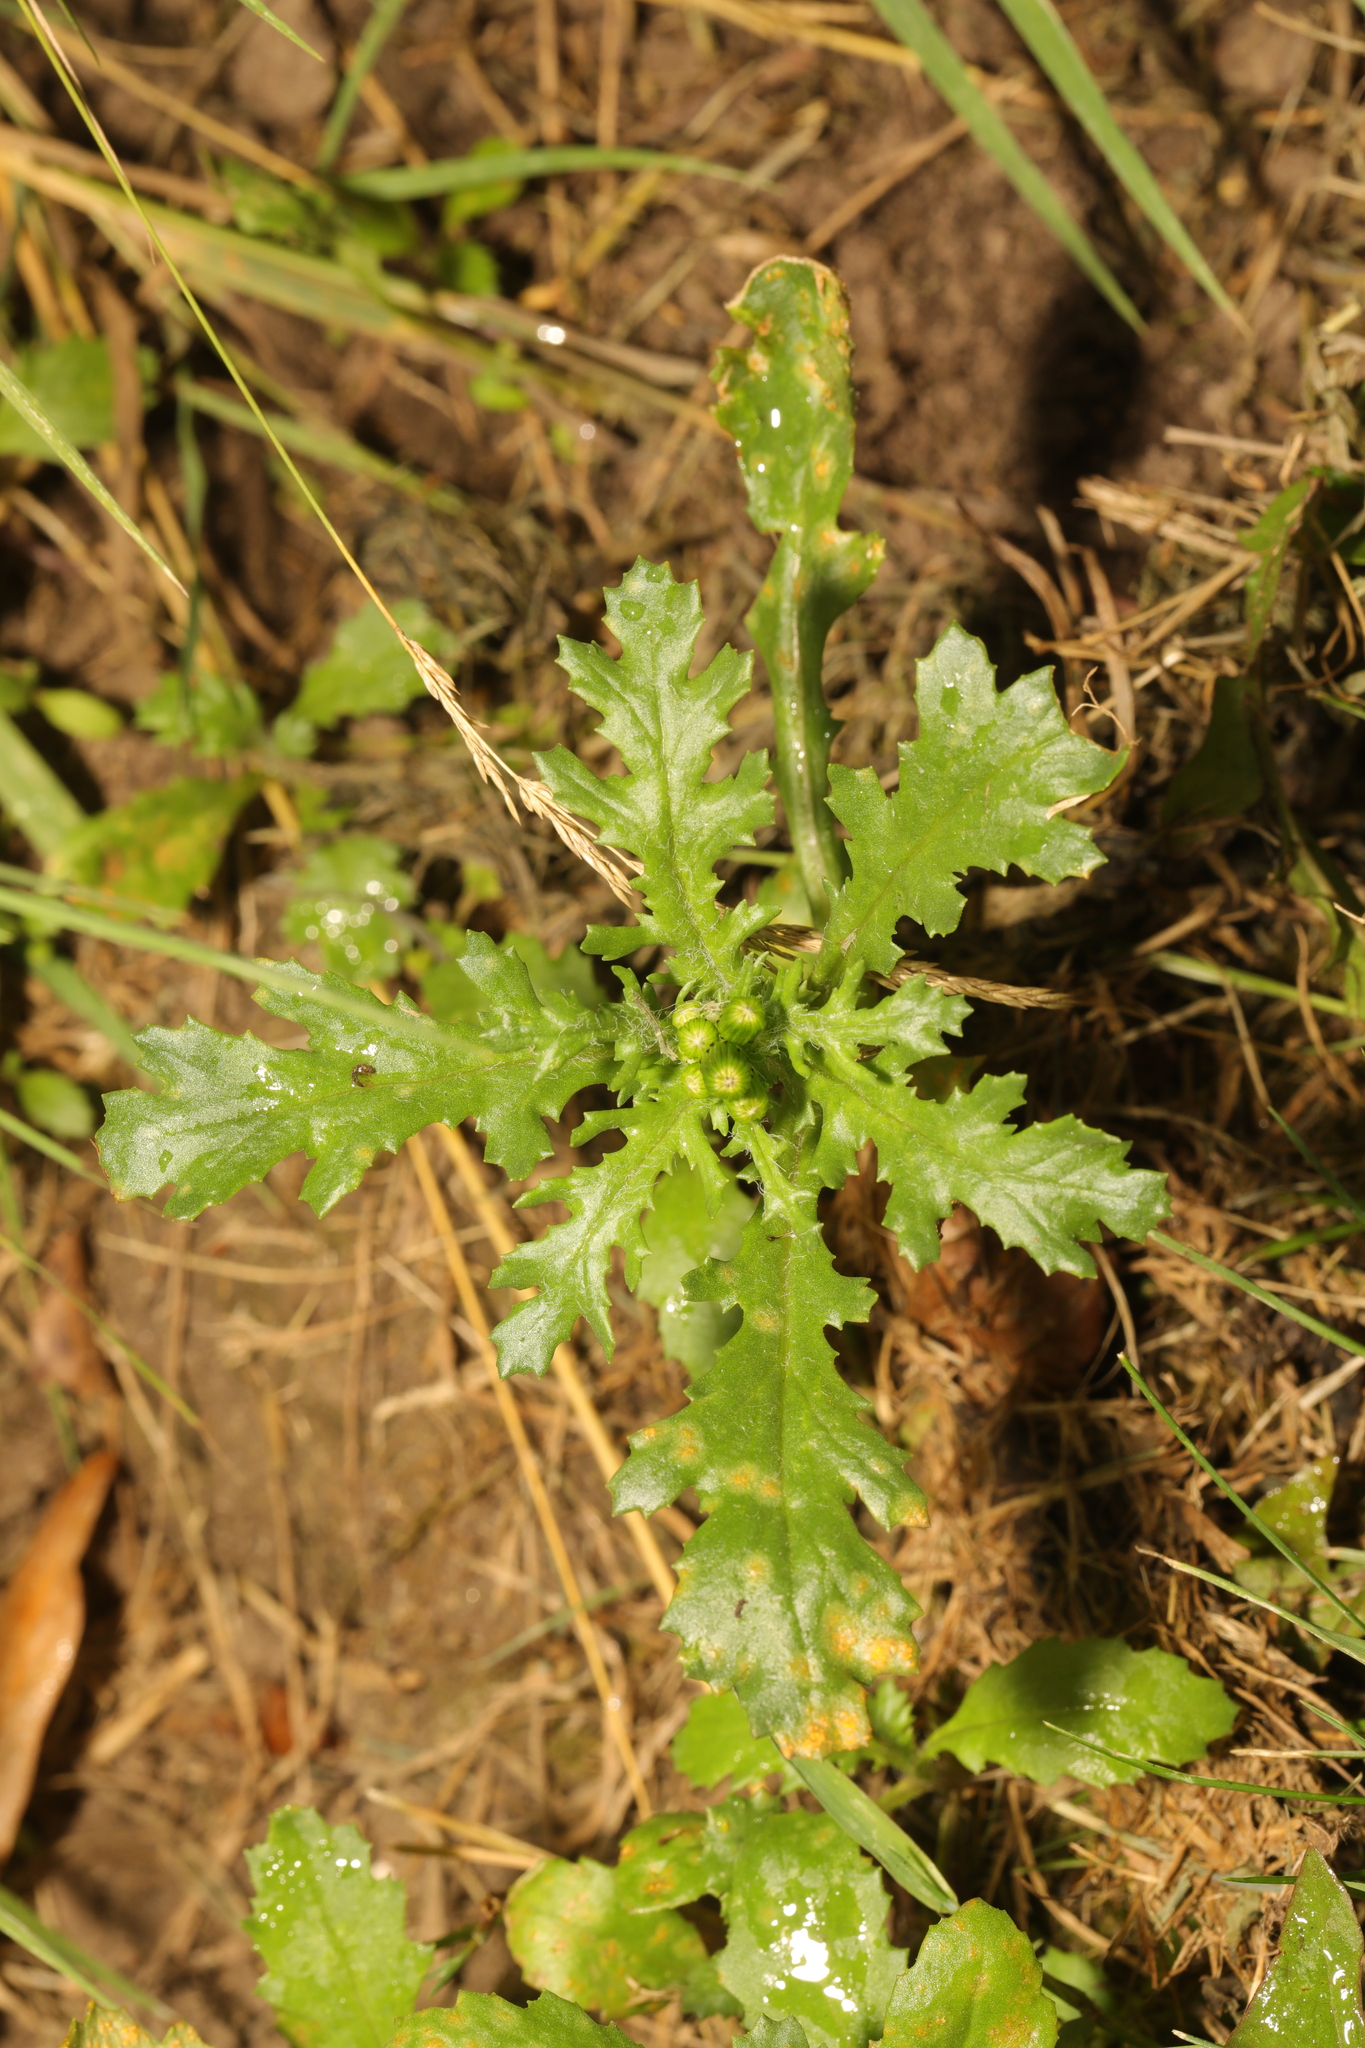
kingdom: Plantae
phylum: Tracheophyta
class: Magnoliopsida
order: Asterales
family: Asteraceae
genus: Senecio
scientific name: Senecio vulgaris
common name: Old-man-in-the-spring
